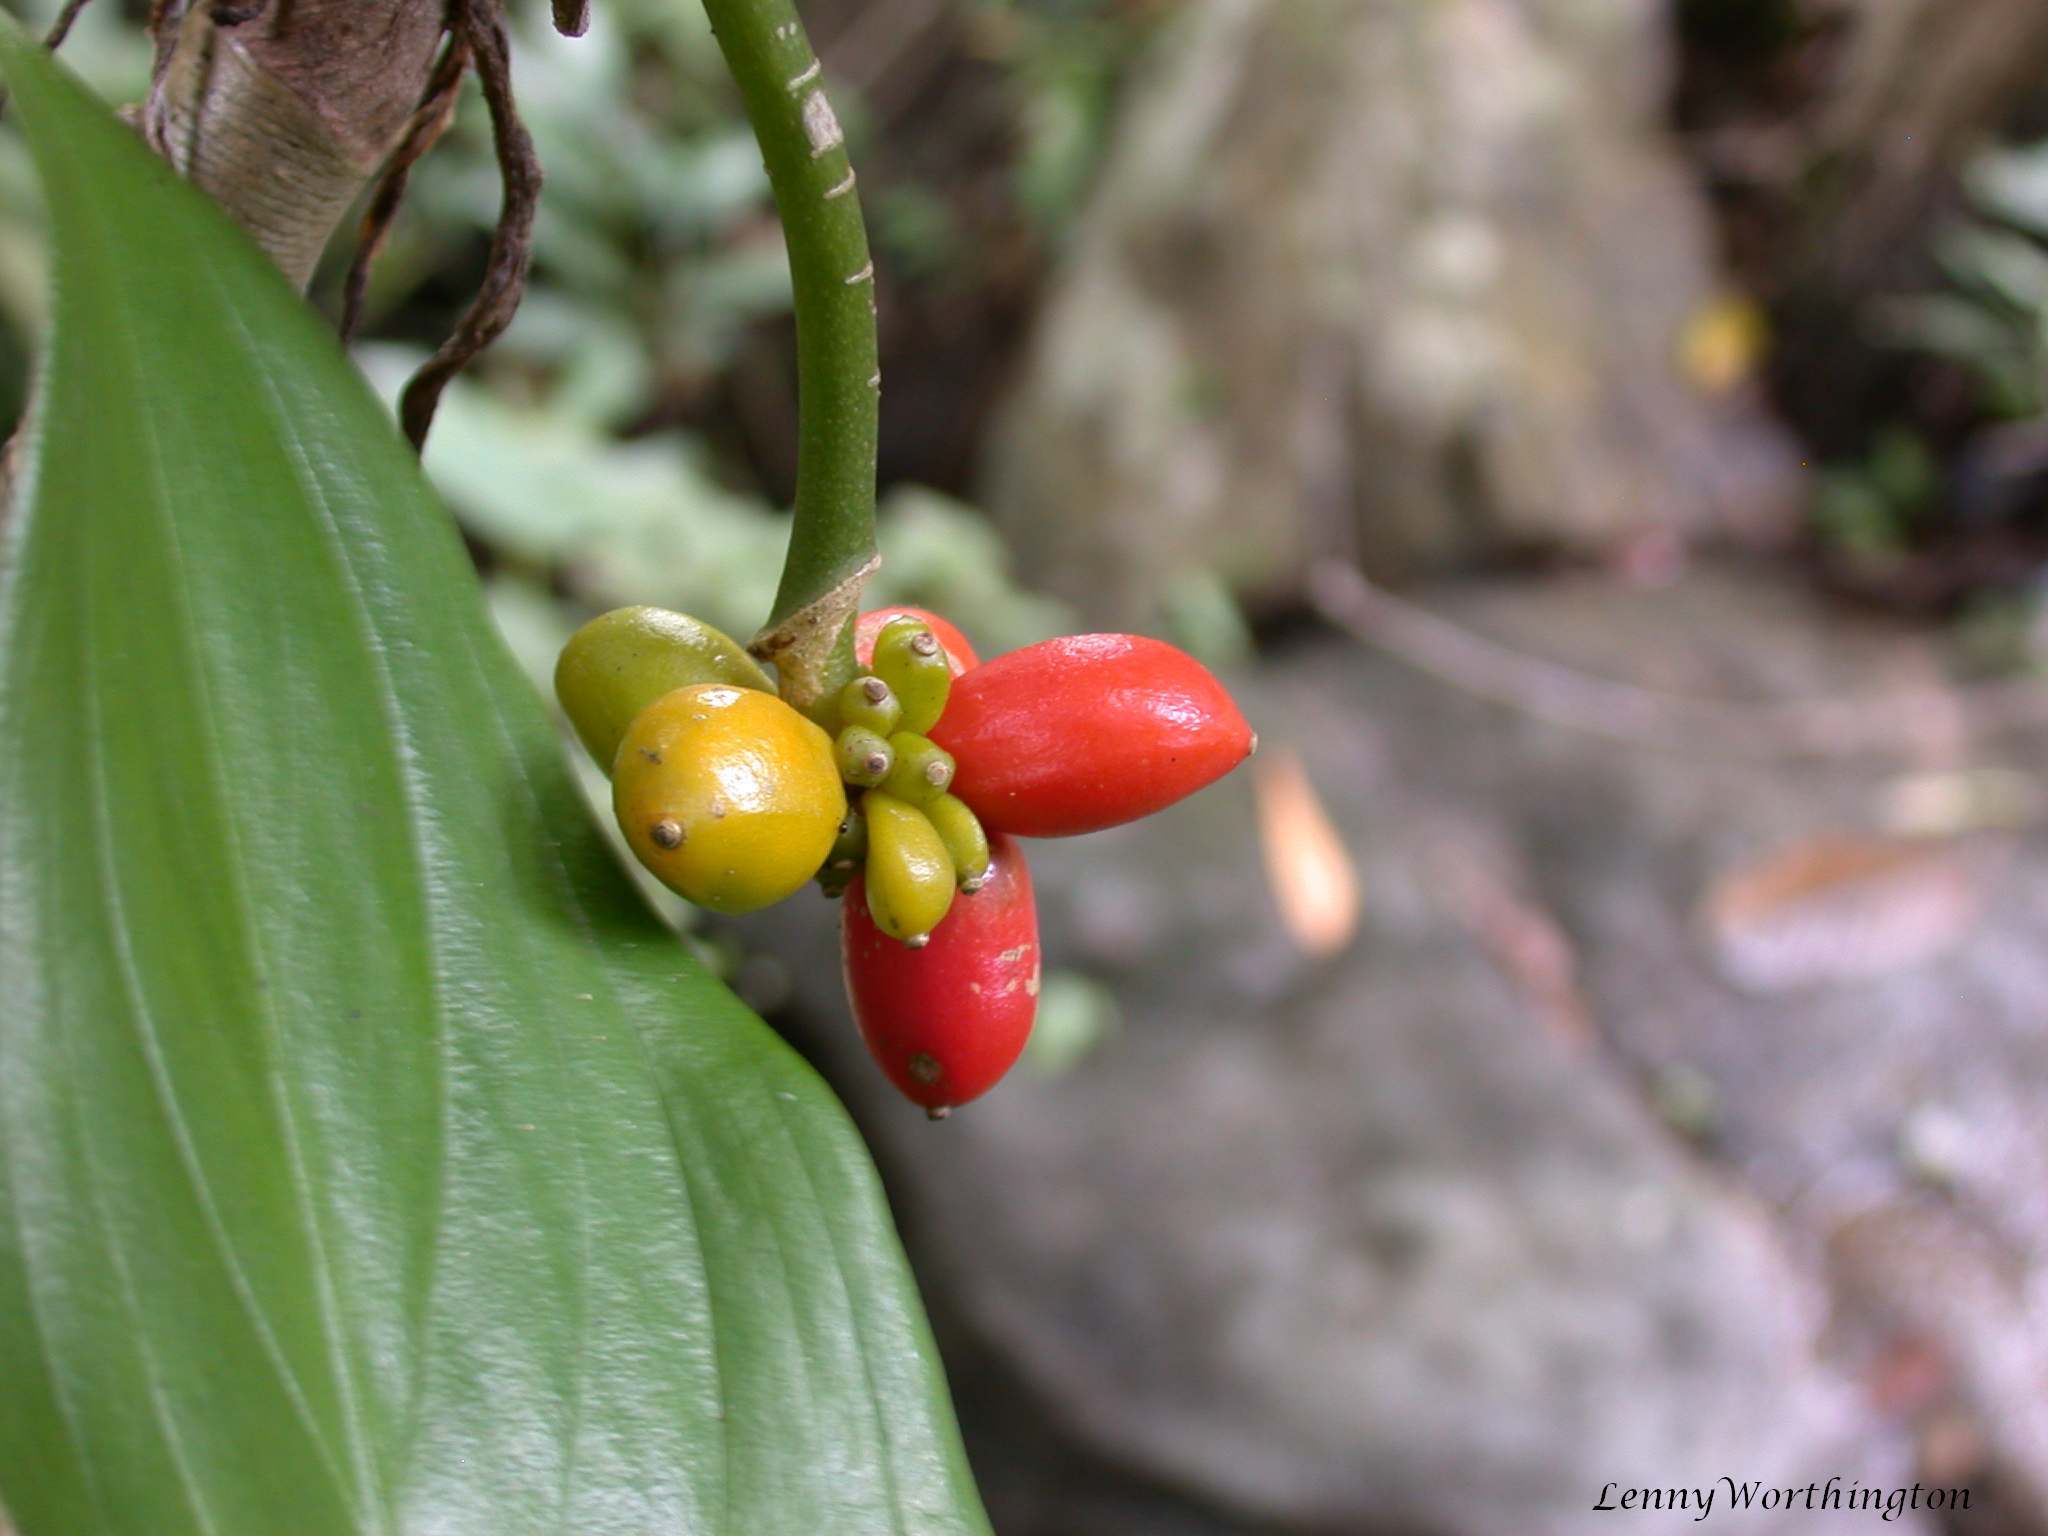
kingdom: Plantae
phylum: Tracheophyta
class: Liliopsida
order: Alismatales
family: Araceae
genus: Aglaonema
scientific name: Aglaonema simplex
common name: Malayan-sword
